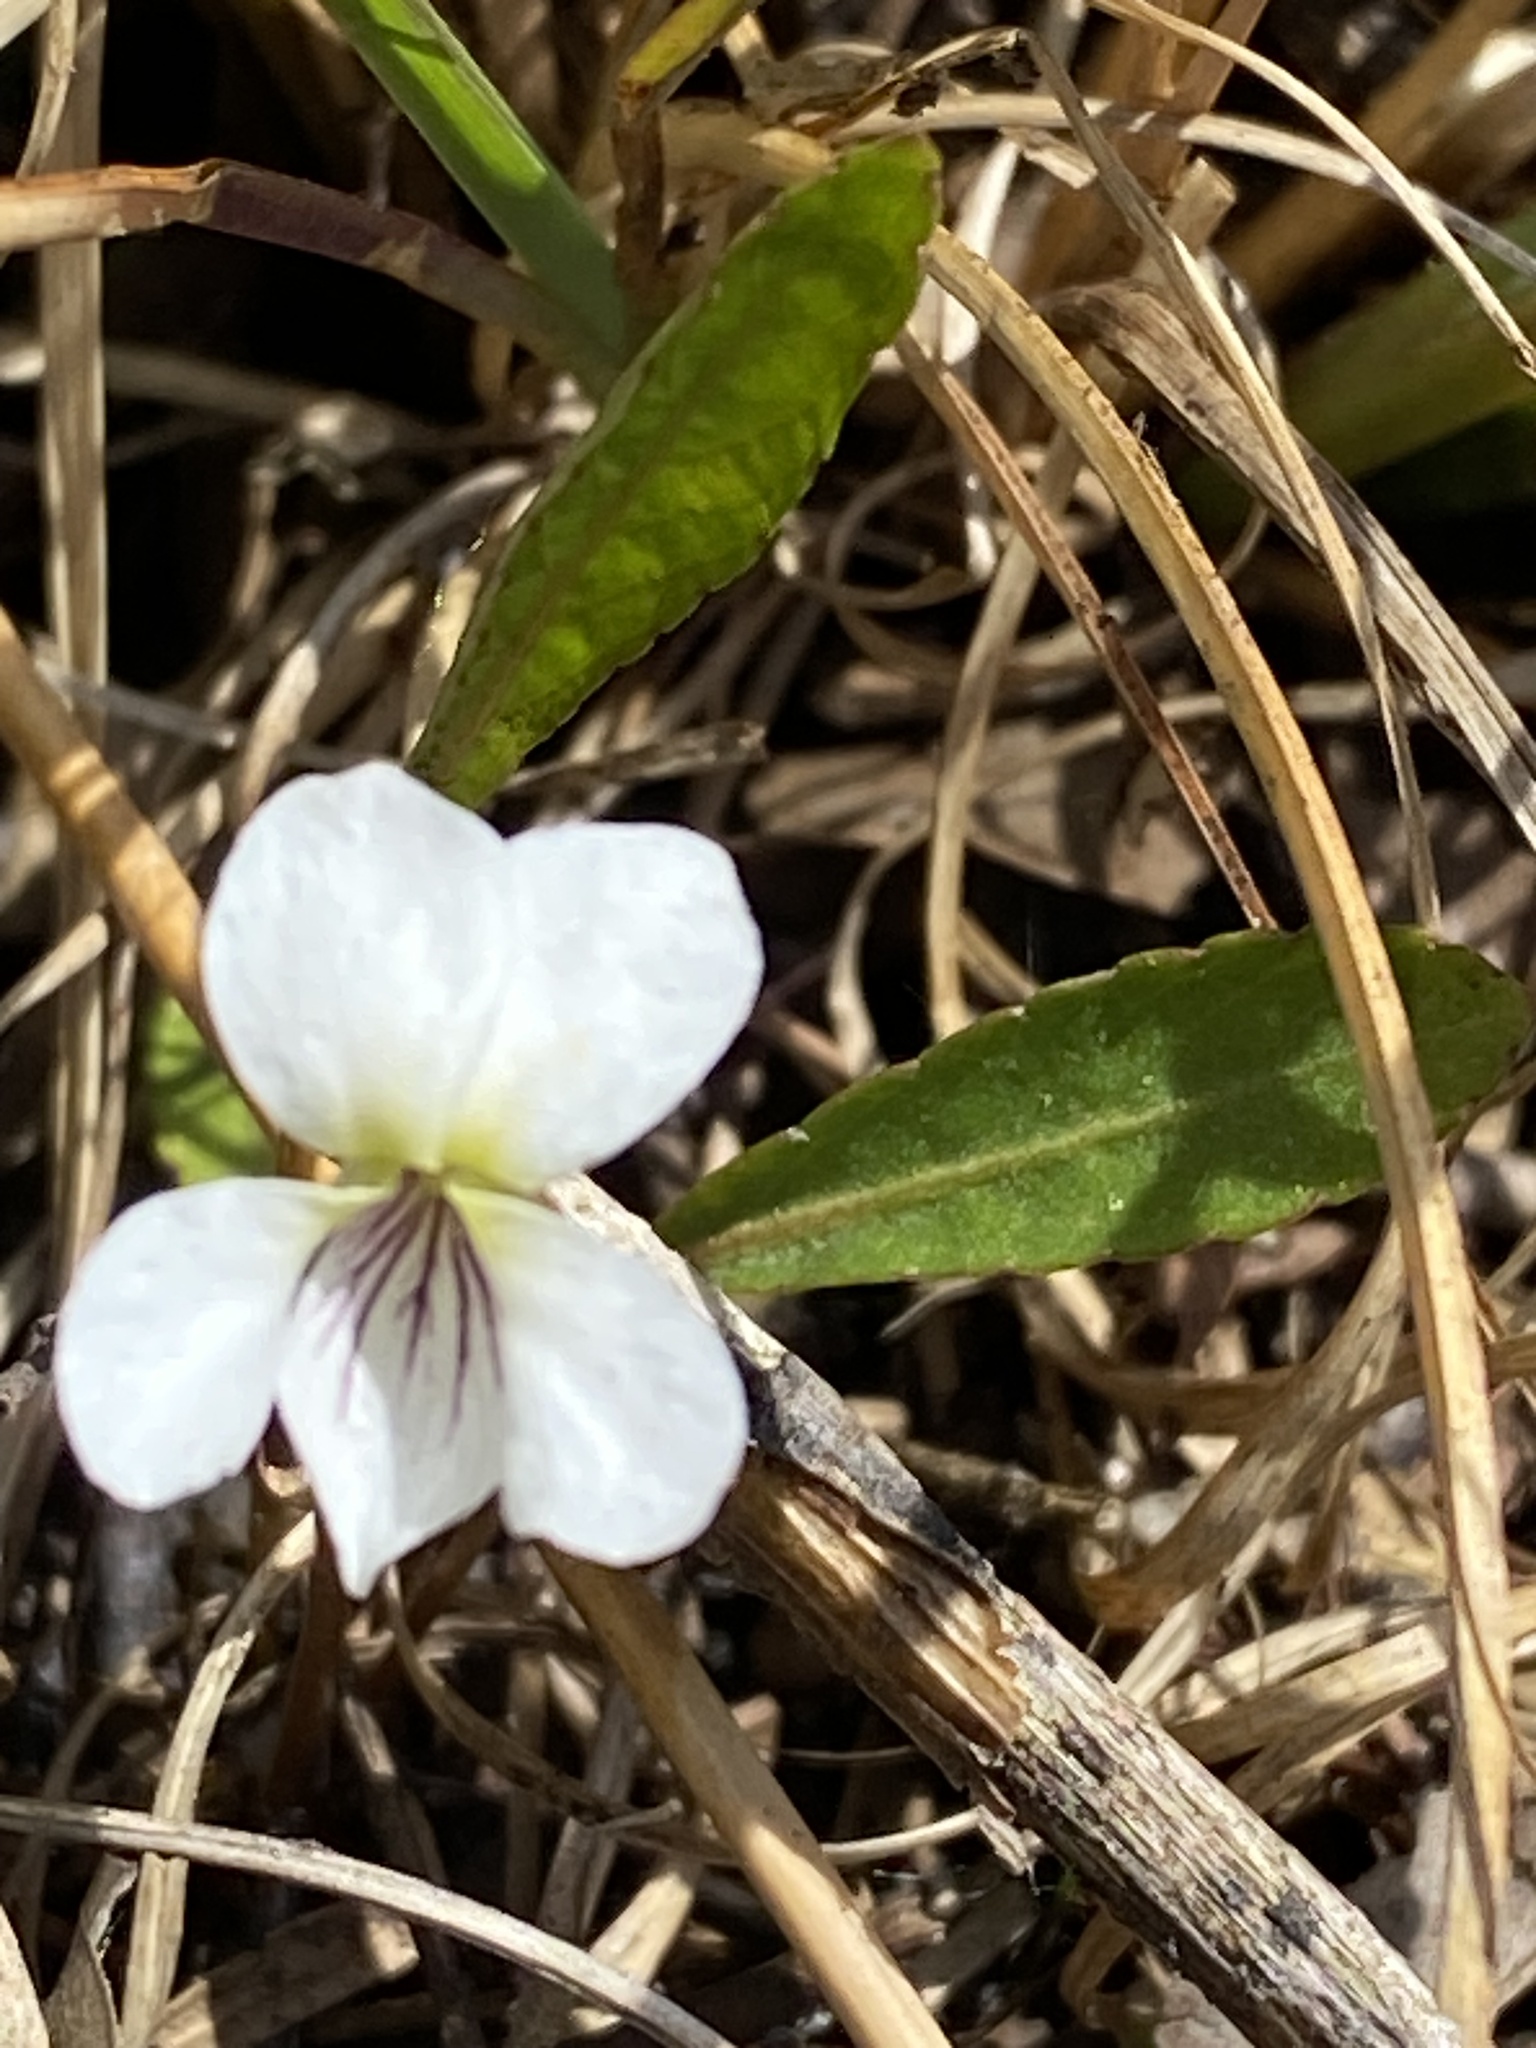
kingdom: Plantae
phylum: Tracheophyta
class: Magnoliopsida
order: Malpighiales
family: Violaceae
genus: Viola
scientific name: Viola lanceolata
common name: Bog white violet
